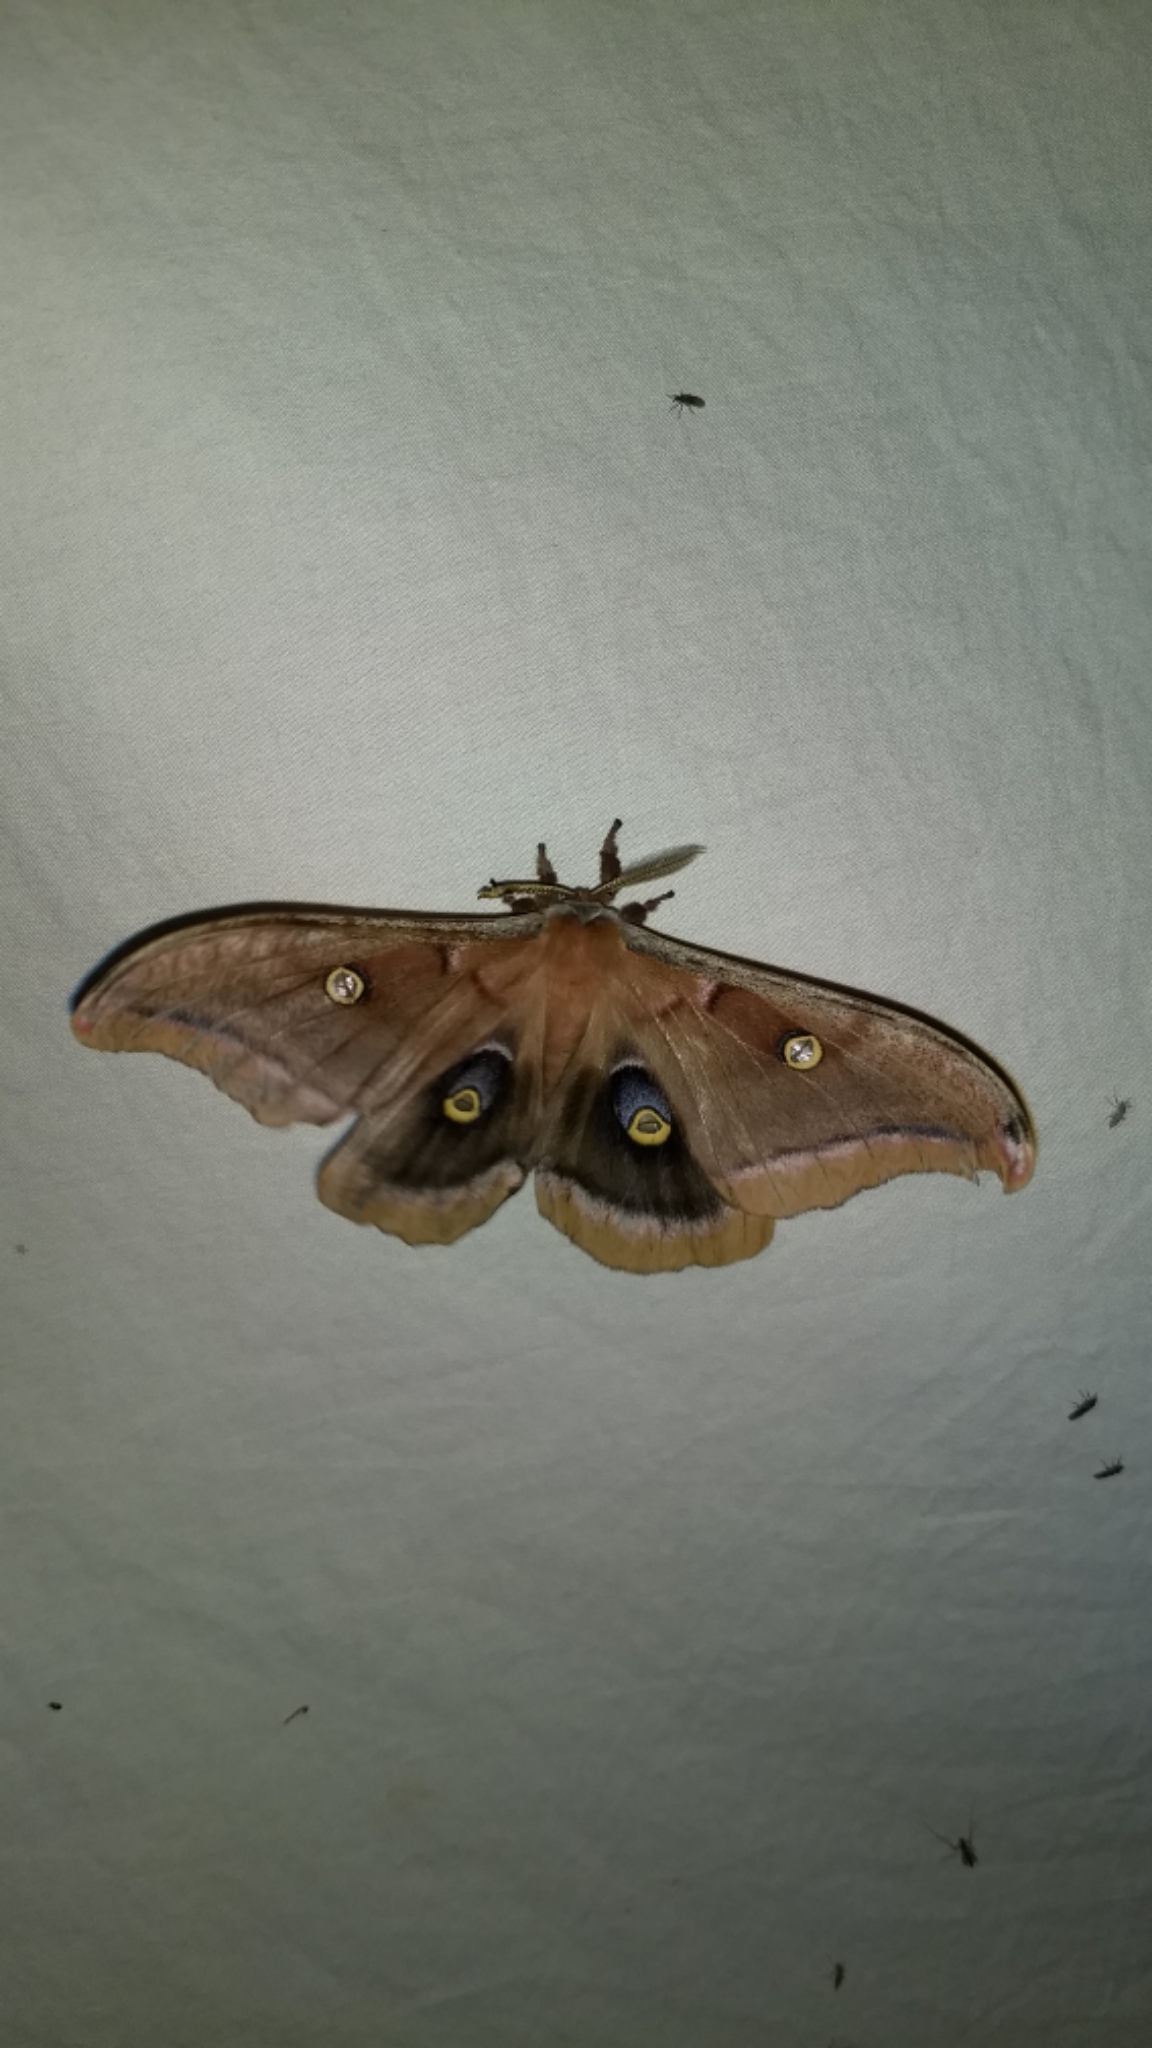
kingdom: Animalia
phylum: Arthropoda
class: Insecta
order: Lepidoptera
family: Saturniidae
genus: Antheraea
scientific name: Antheraea polyphemus
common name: Polyphemus moth
